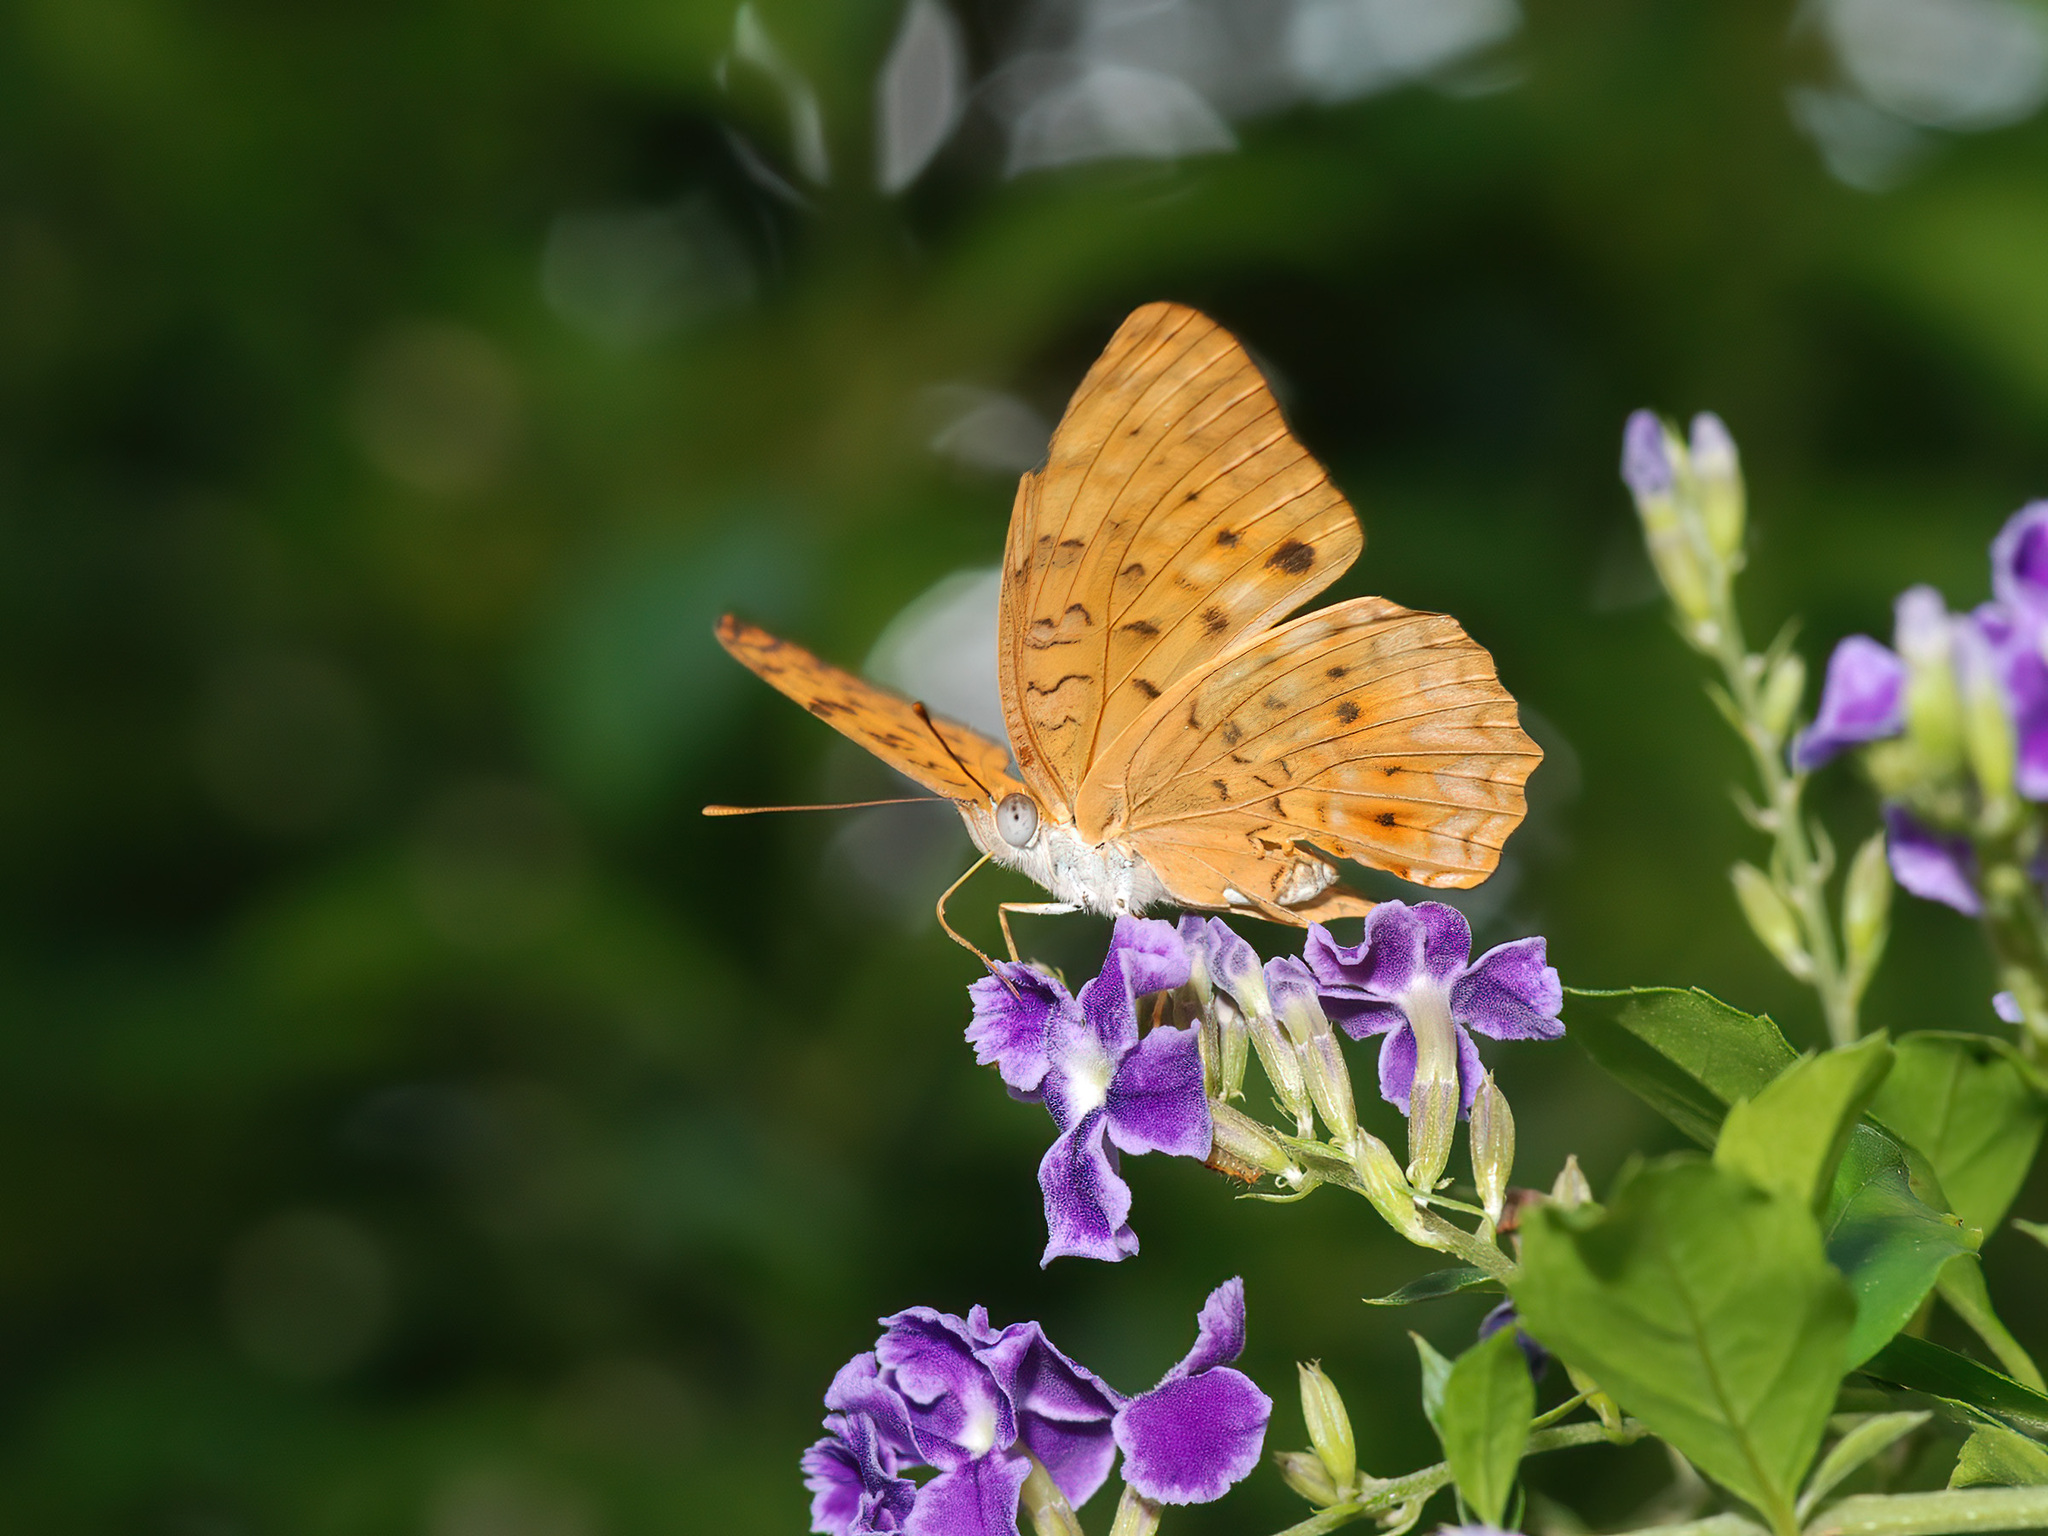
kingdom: Animalia
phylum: Arthropoda
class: Insecta
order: Lepidoptera
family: Nymphalidae
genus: Phalanta
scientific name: Phalanta phalantha
